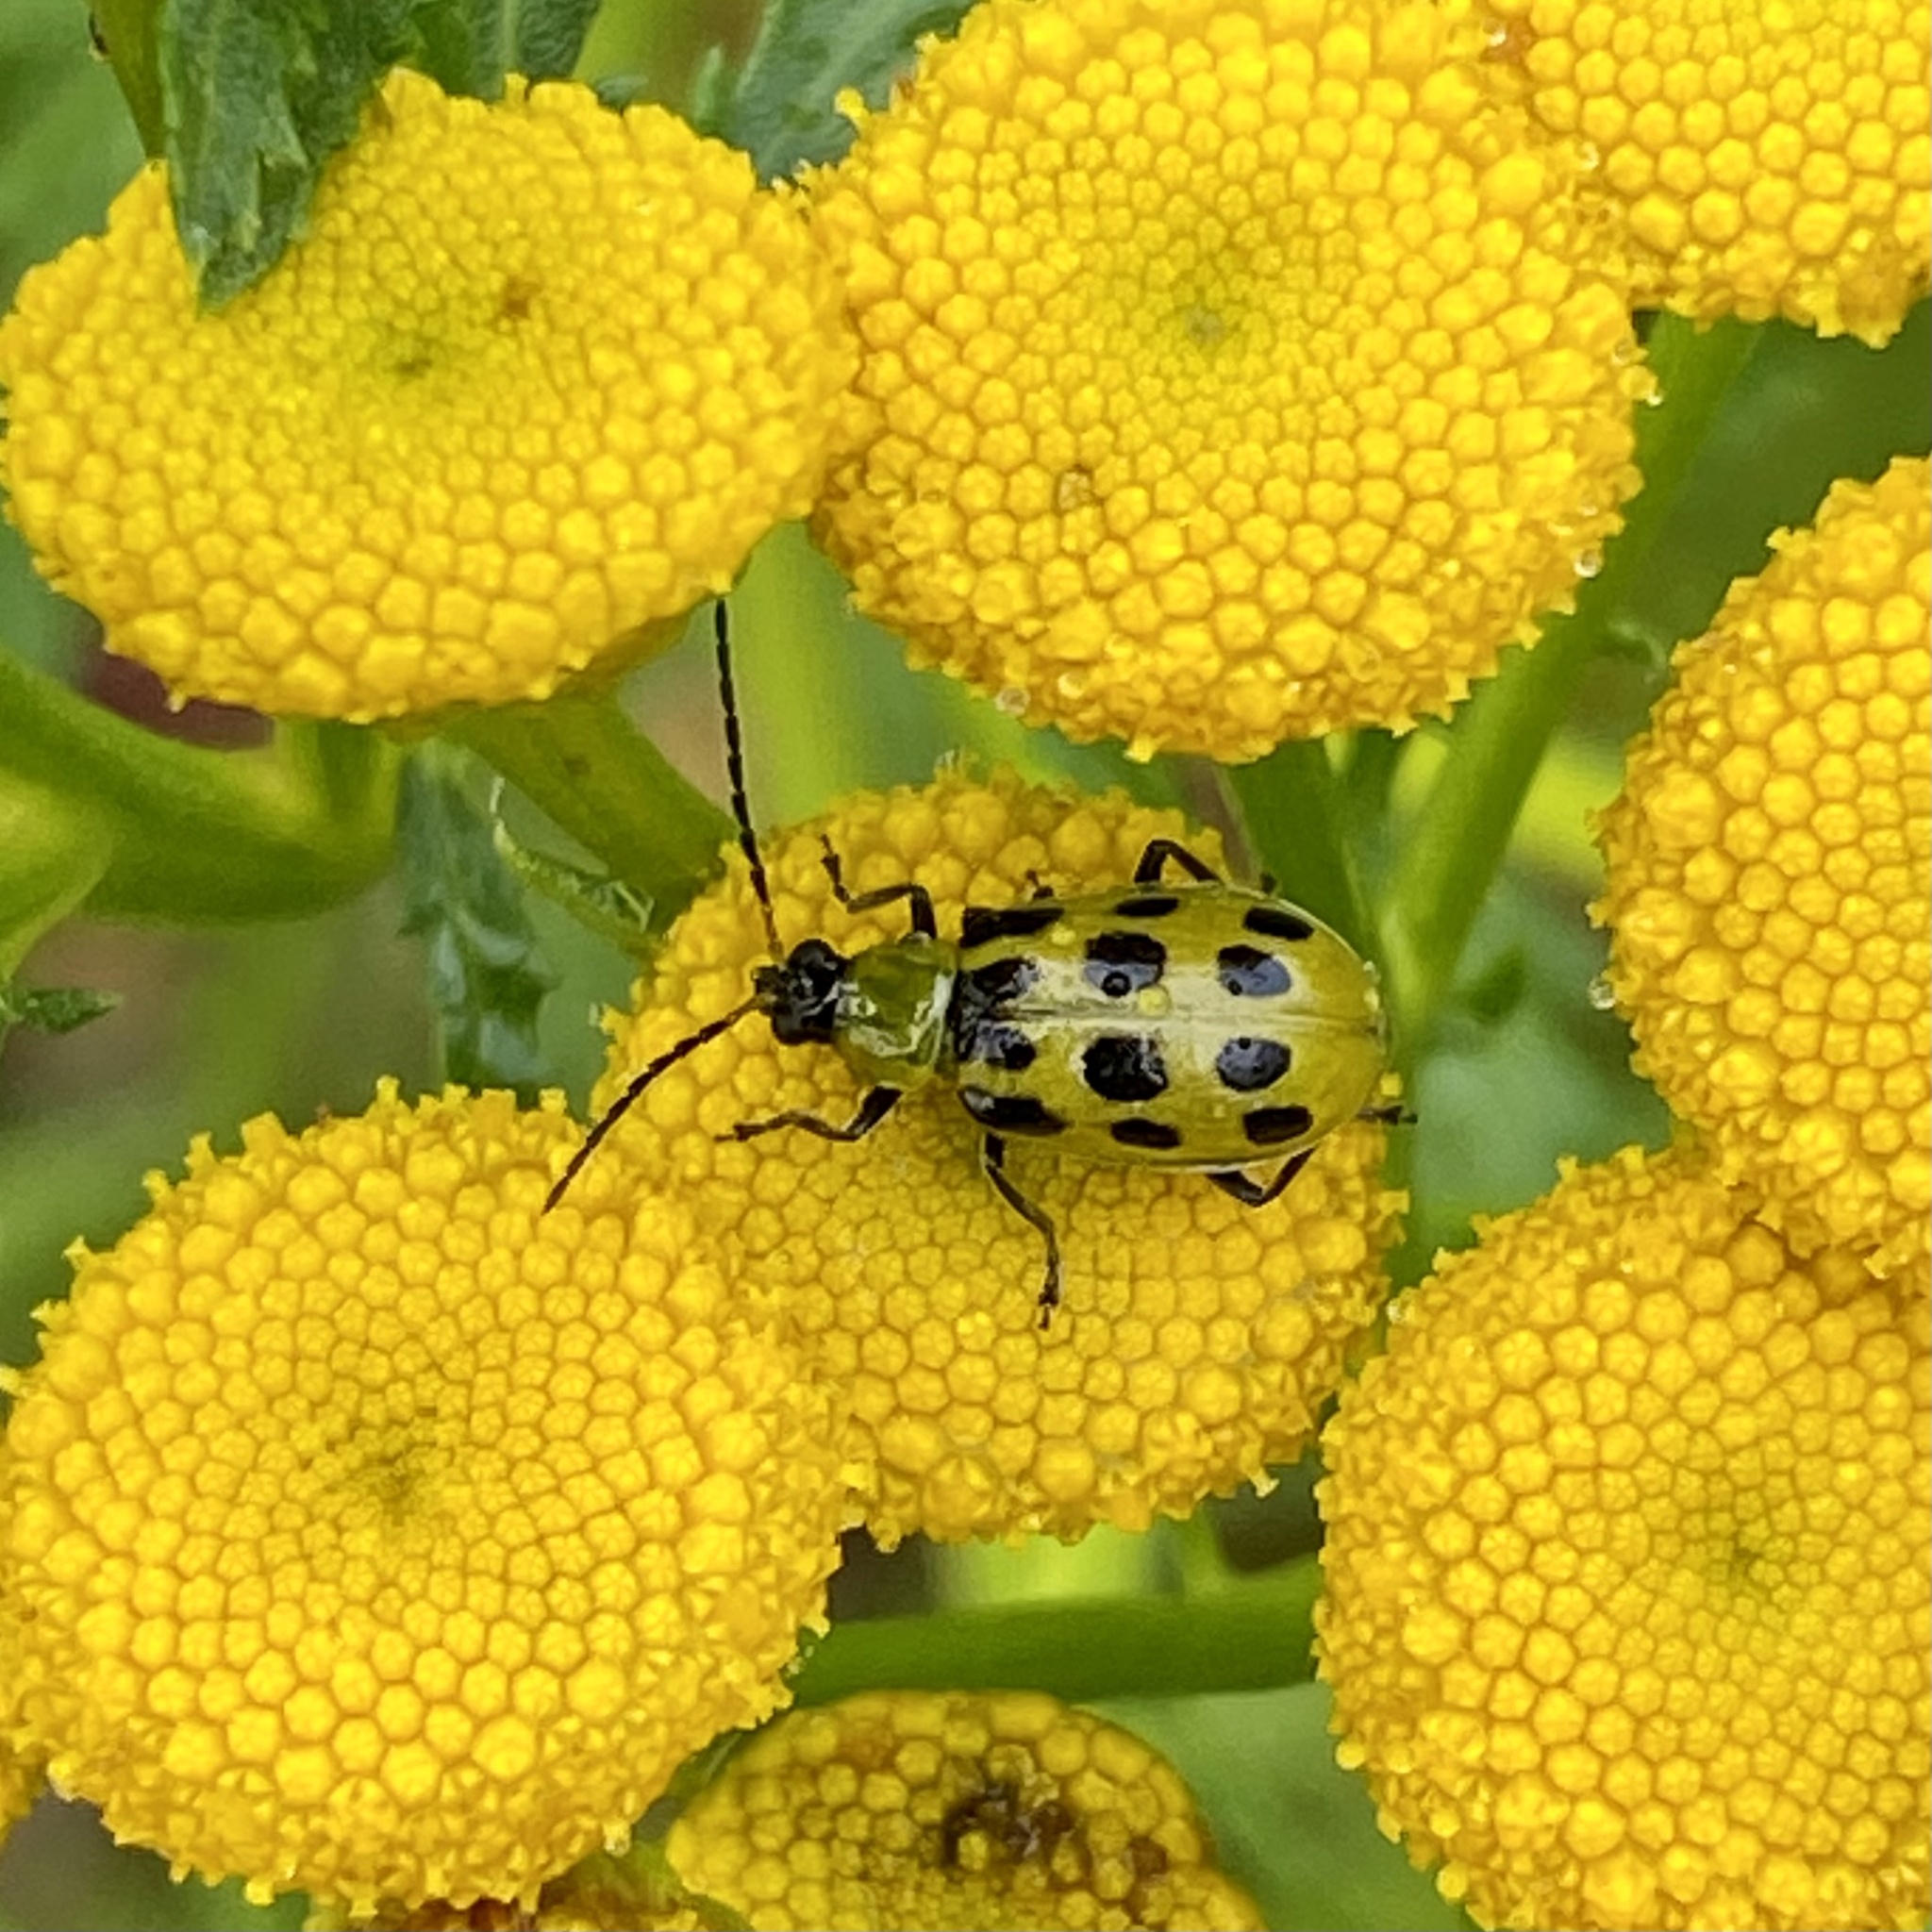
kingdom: Animalia
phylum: Arthropoda
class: Insecta
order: Coleoptera
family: Chrysomelidae
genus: Diabrotica
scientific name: Diabrotica undecimpunctata
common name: Spotted cucumber beetle
